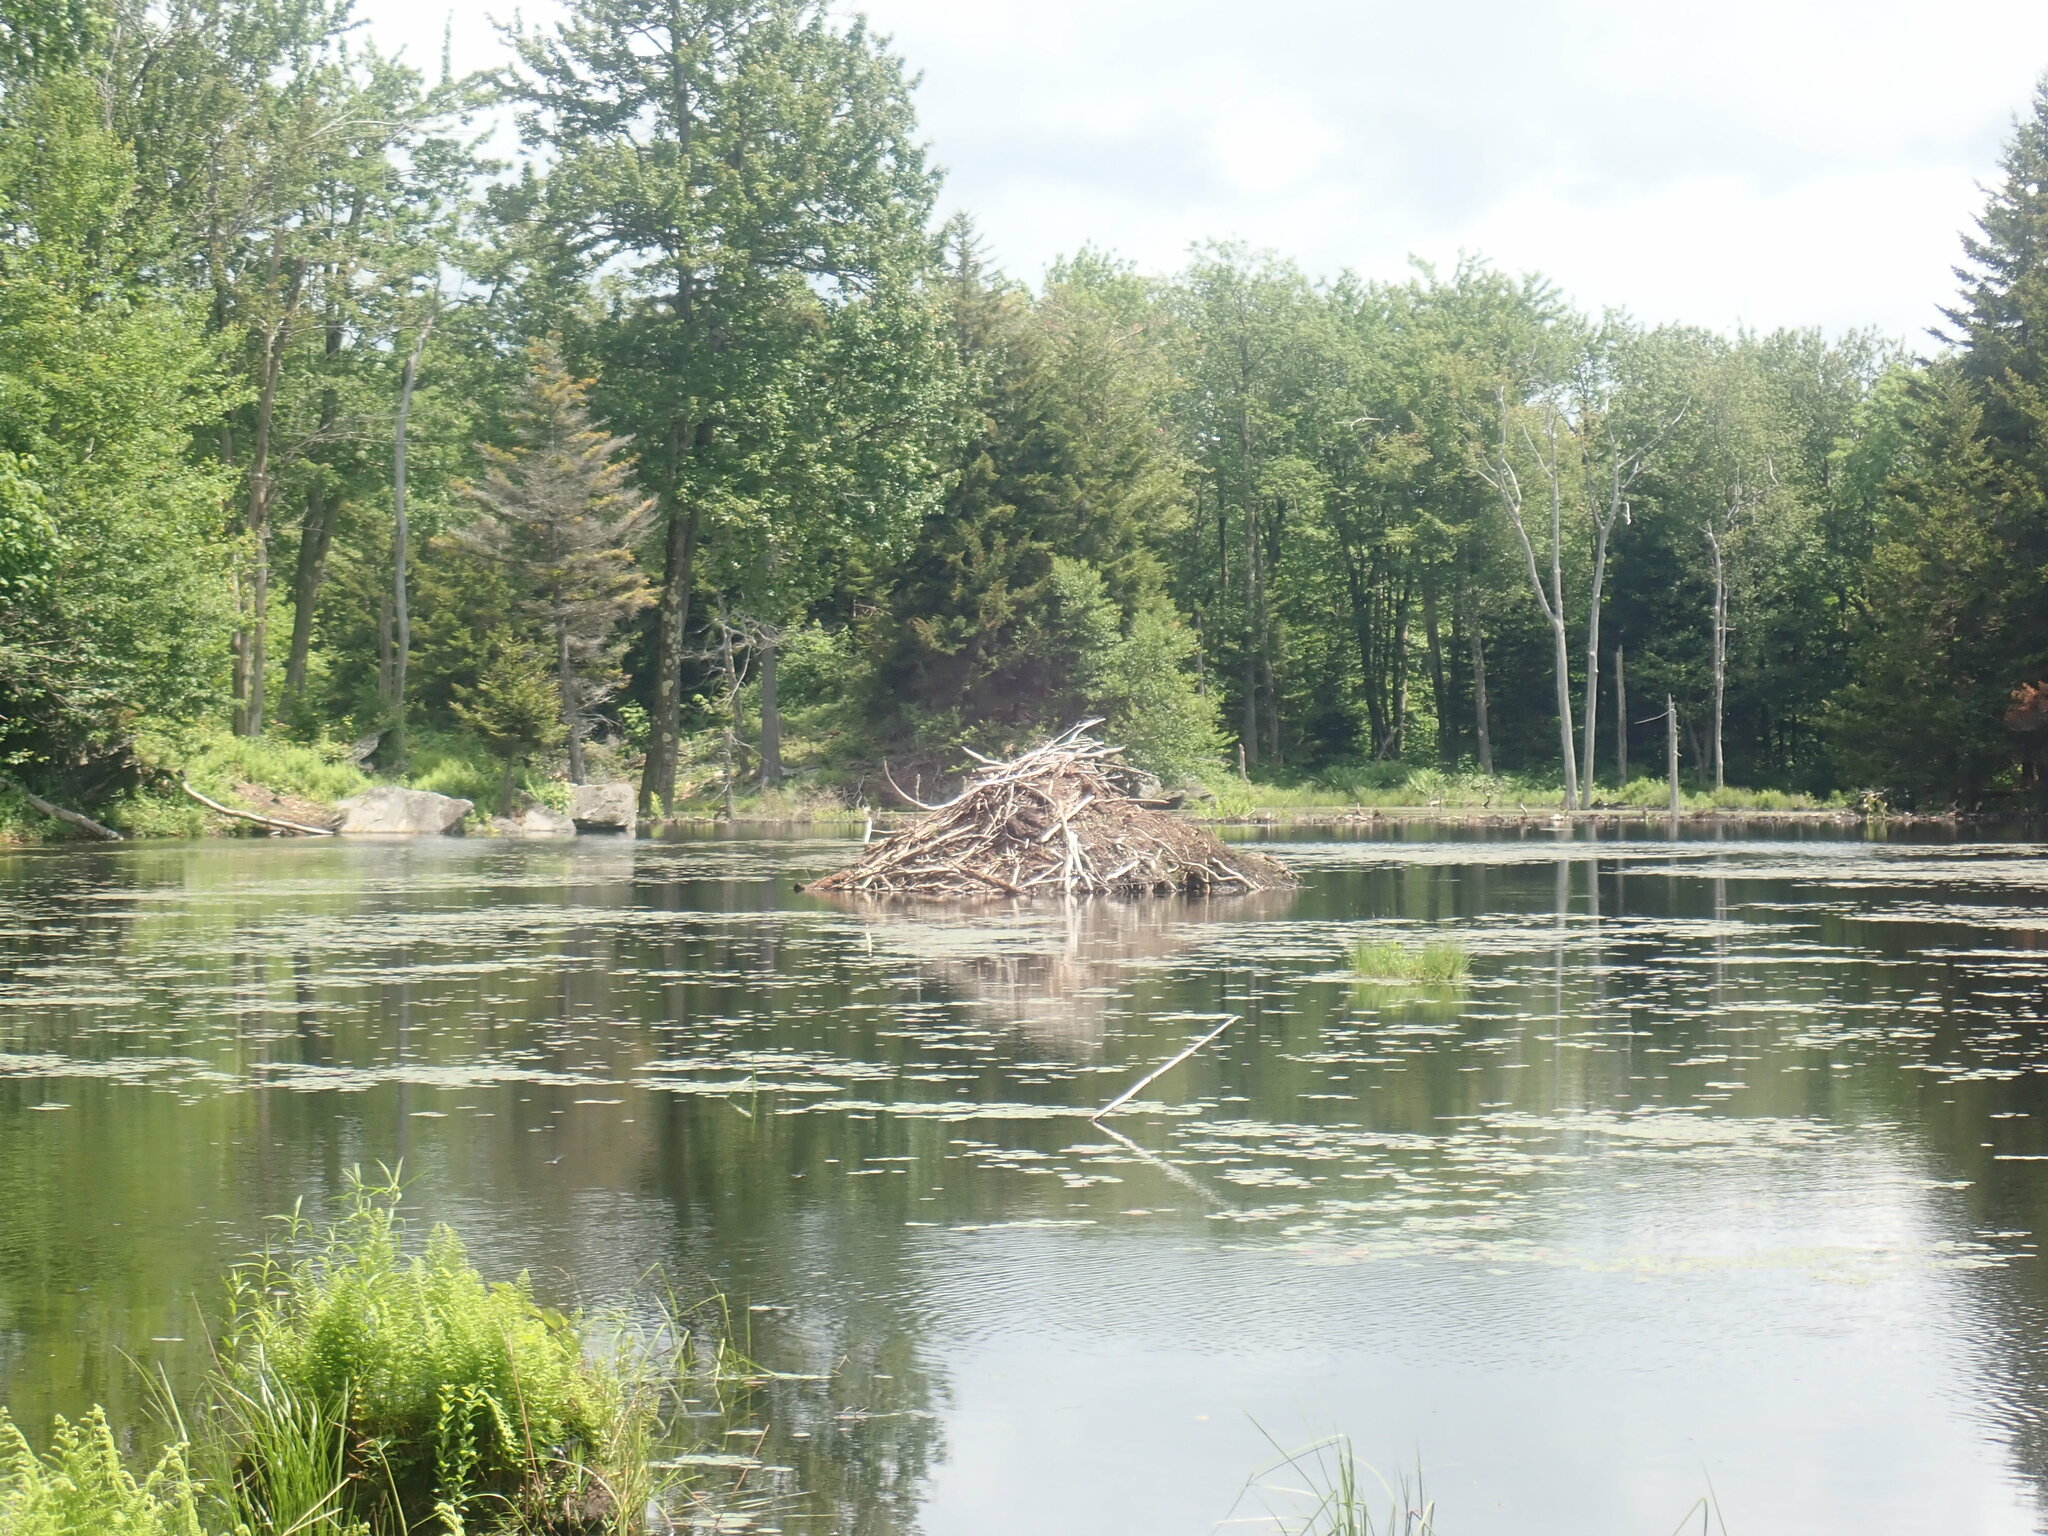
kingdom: Animalia
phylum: Chordata
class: Mammalia
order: Rodentia
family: Castoridae
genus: Castor
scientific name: Castor canadensis
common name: American beaver
